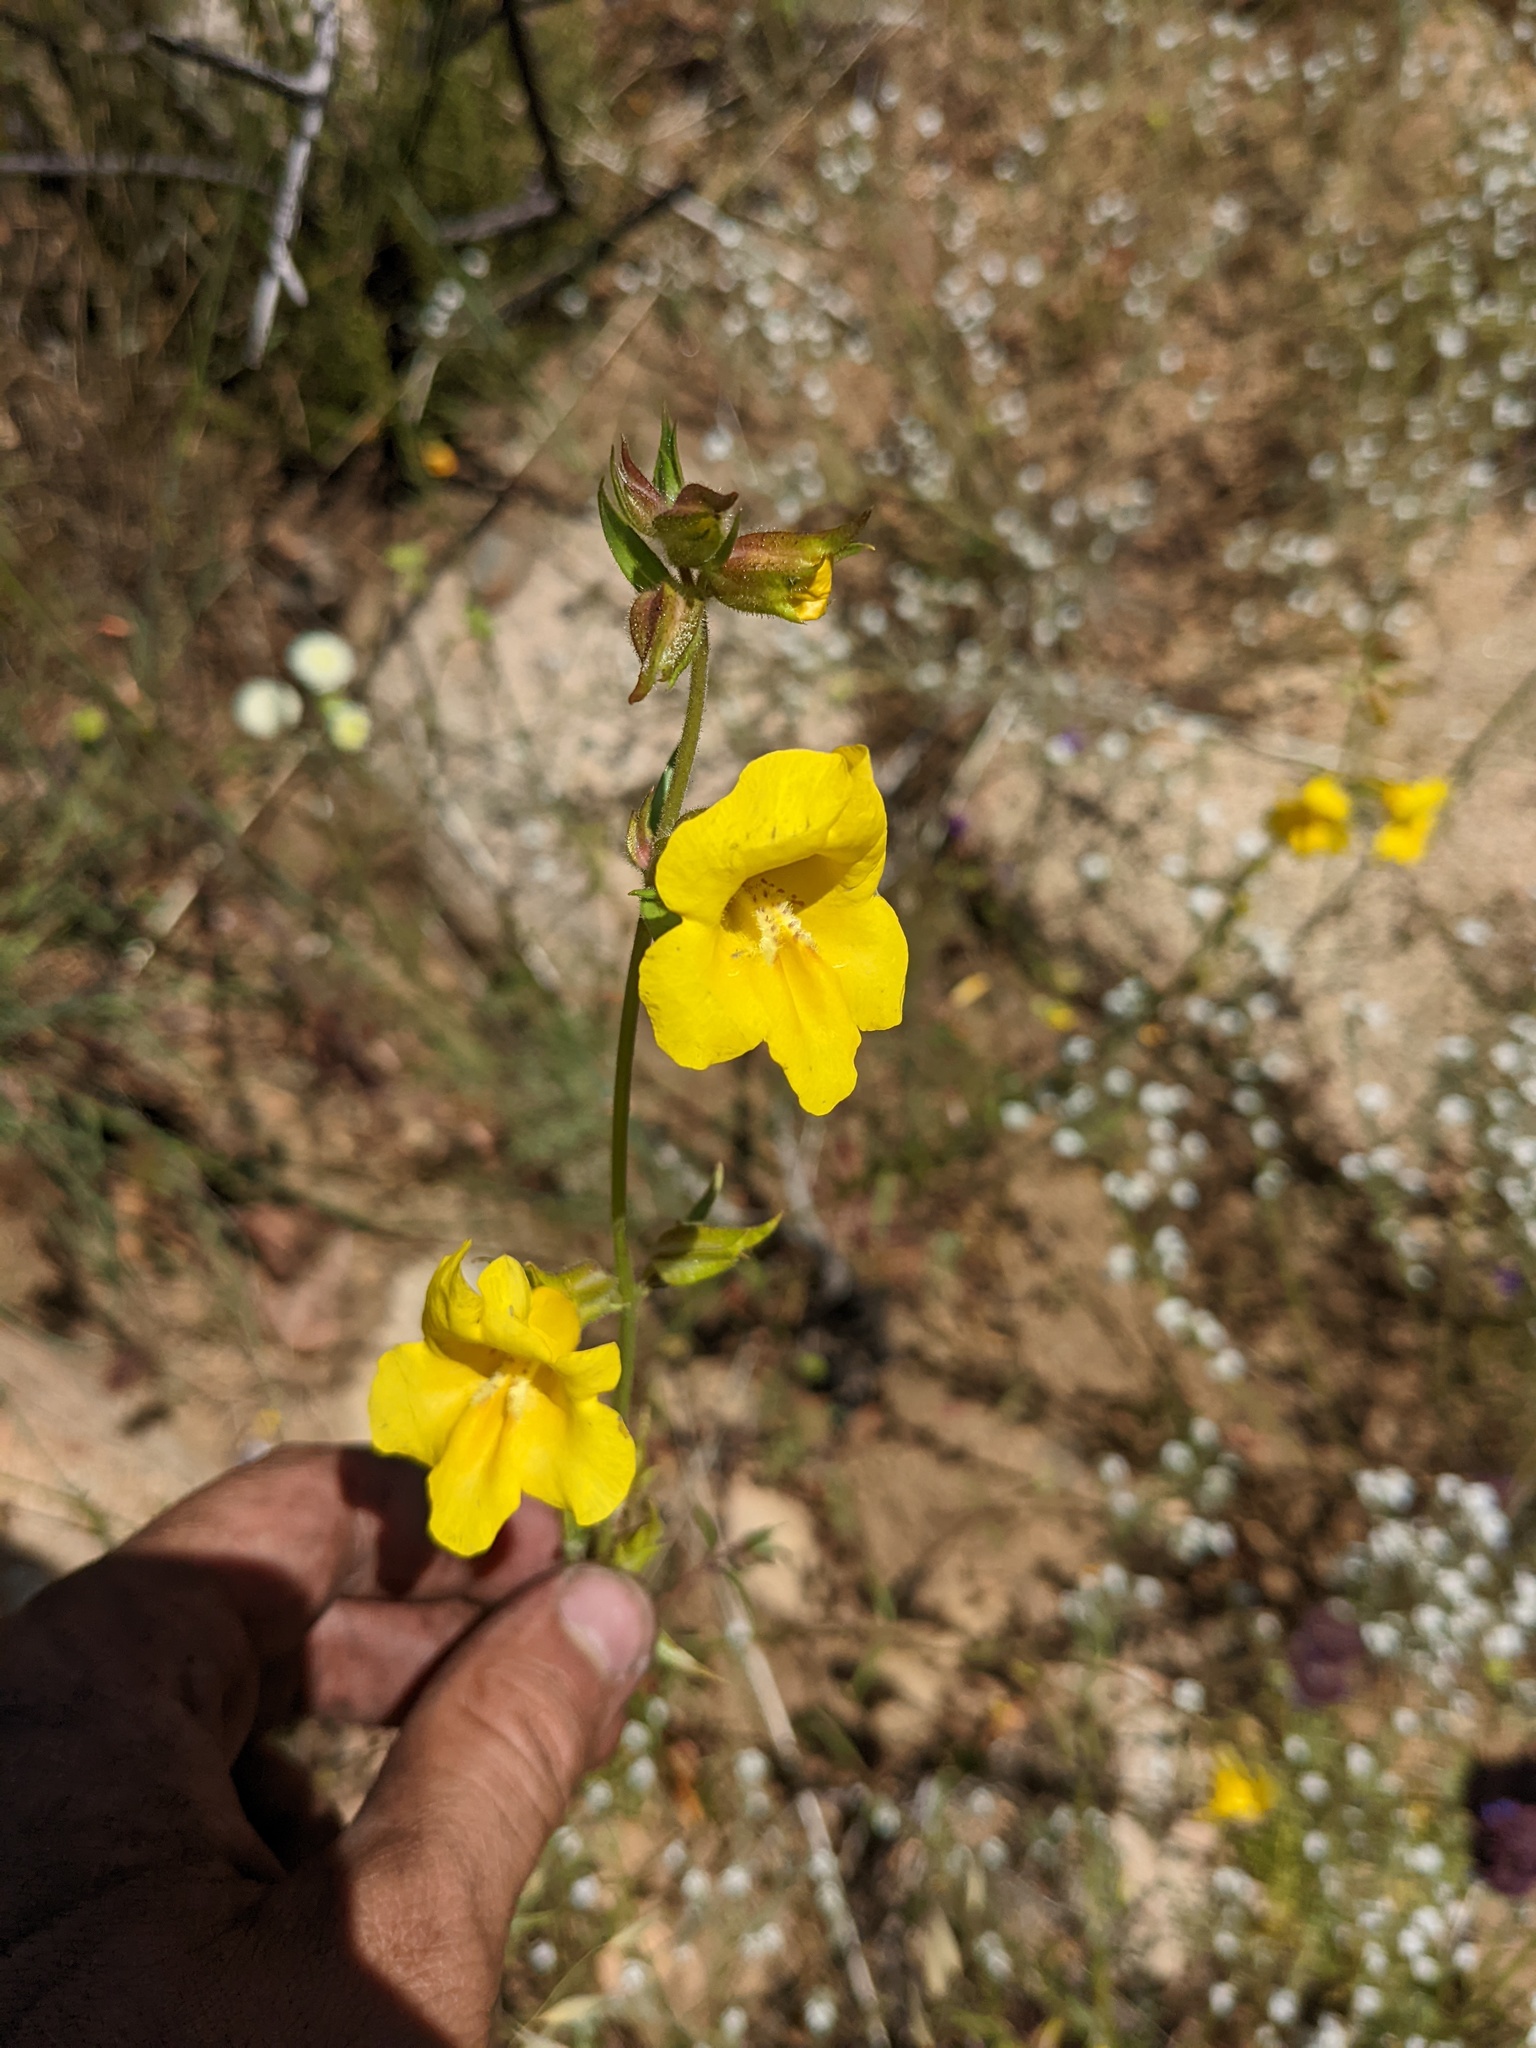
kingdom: Plantae
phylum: Tracheophyta
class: Magnoliopsida
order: Lamiales
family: Phrymaceae
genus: Diplacus
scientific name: Diplacus brevipes
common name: Wide-throat yellow monkey-flower
